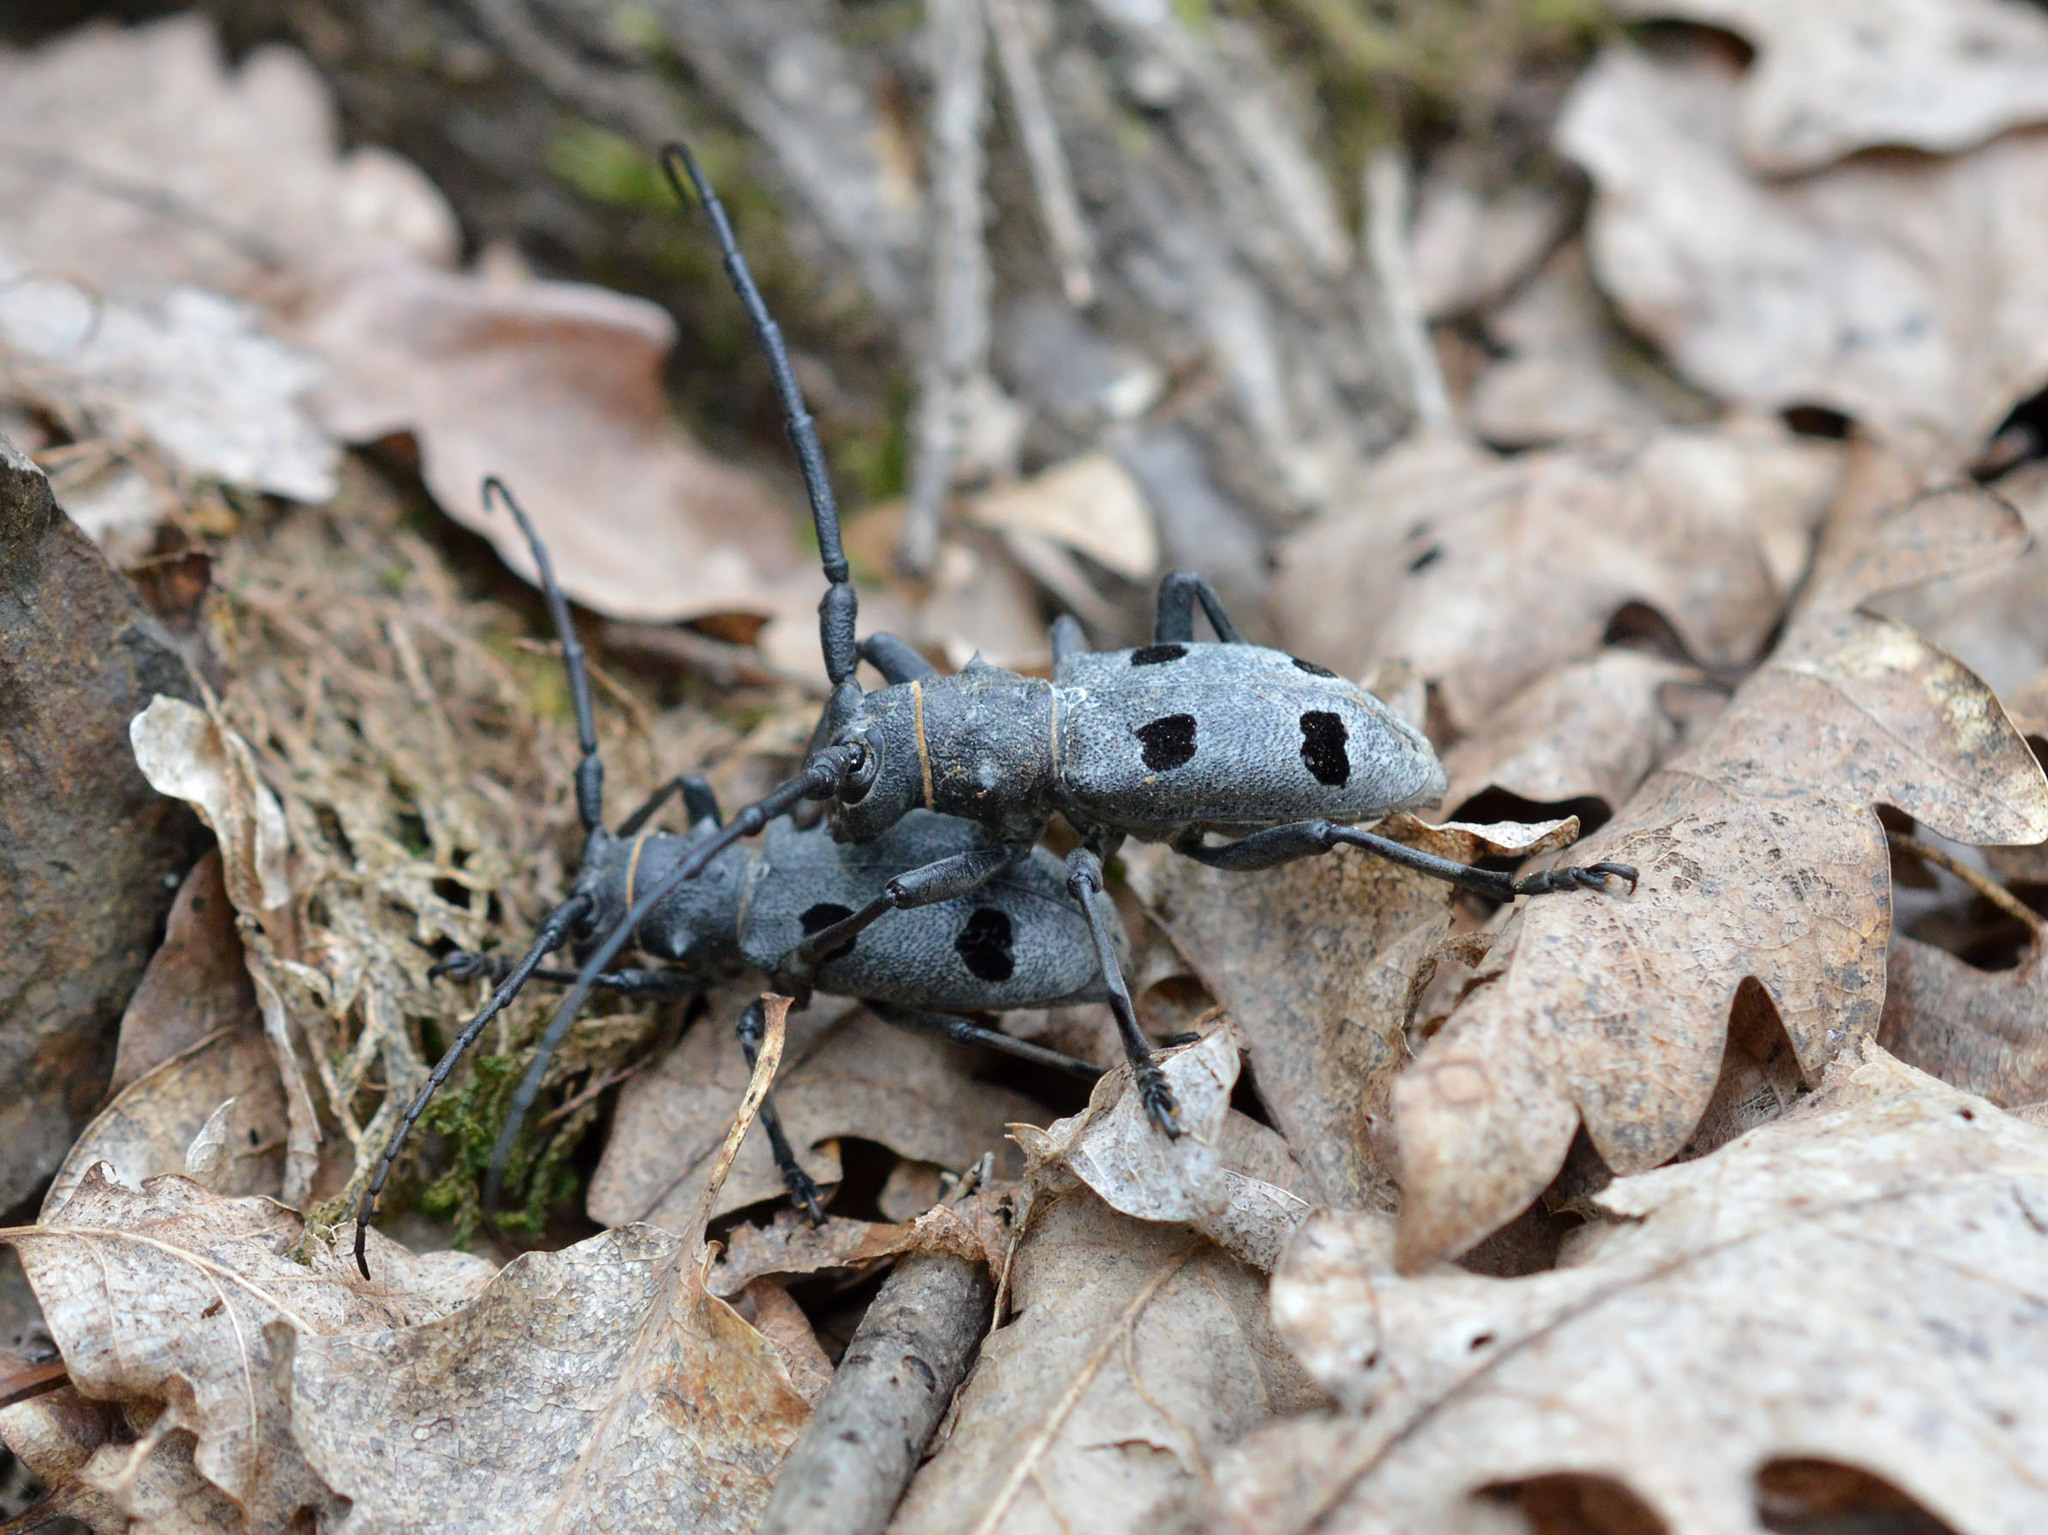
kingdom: Animalia
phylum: Arthropoda
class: Insecta
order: Coleoptera
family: Cerambycidae
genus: Morimus
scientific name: Morimus funereus
